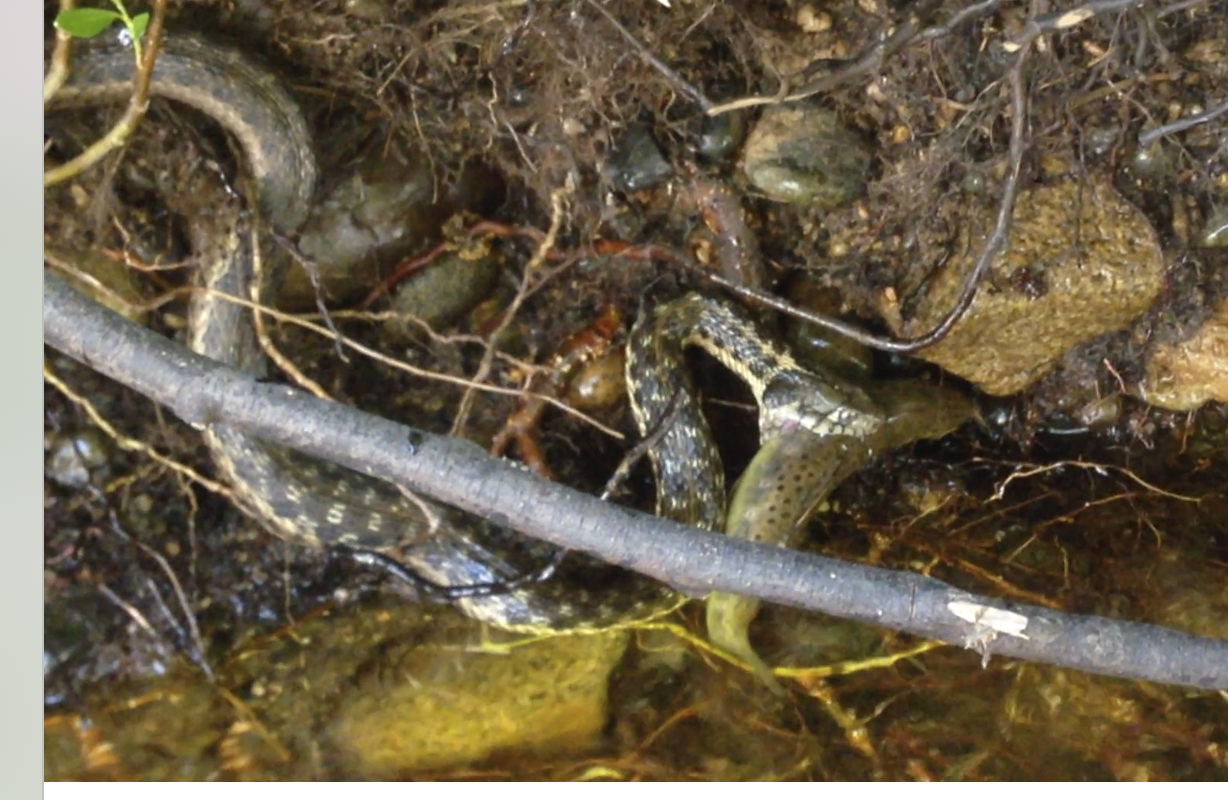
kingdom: Animalia
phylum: Chordata
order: Salmoniformes
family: Salmonidae
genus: Salmo
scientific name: Salmo trutta
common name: Brown trout
